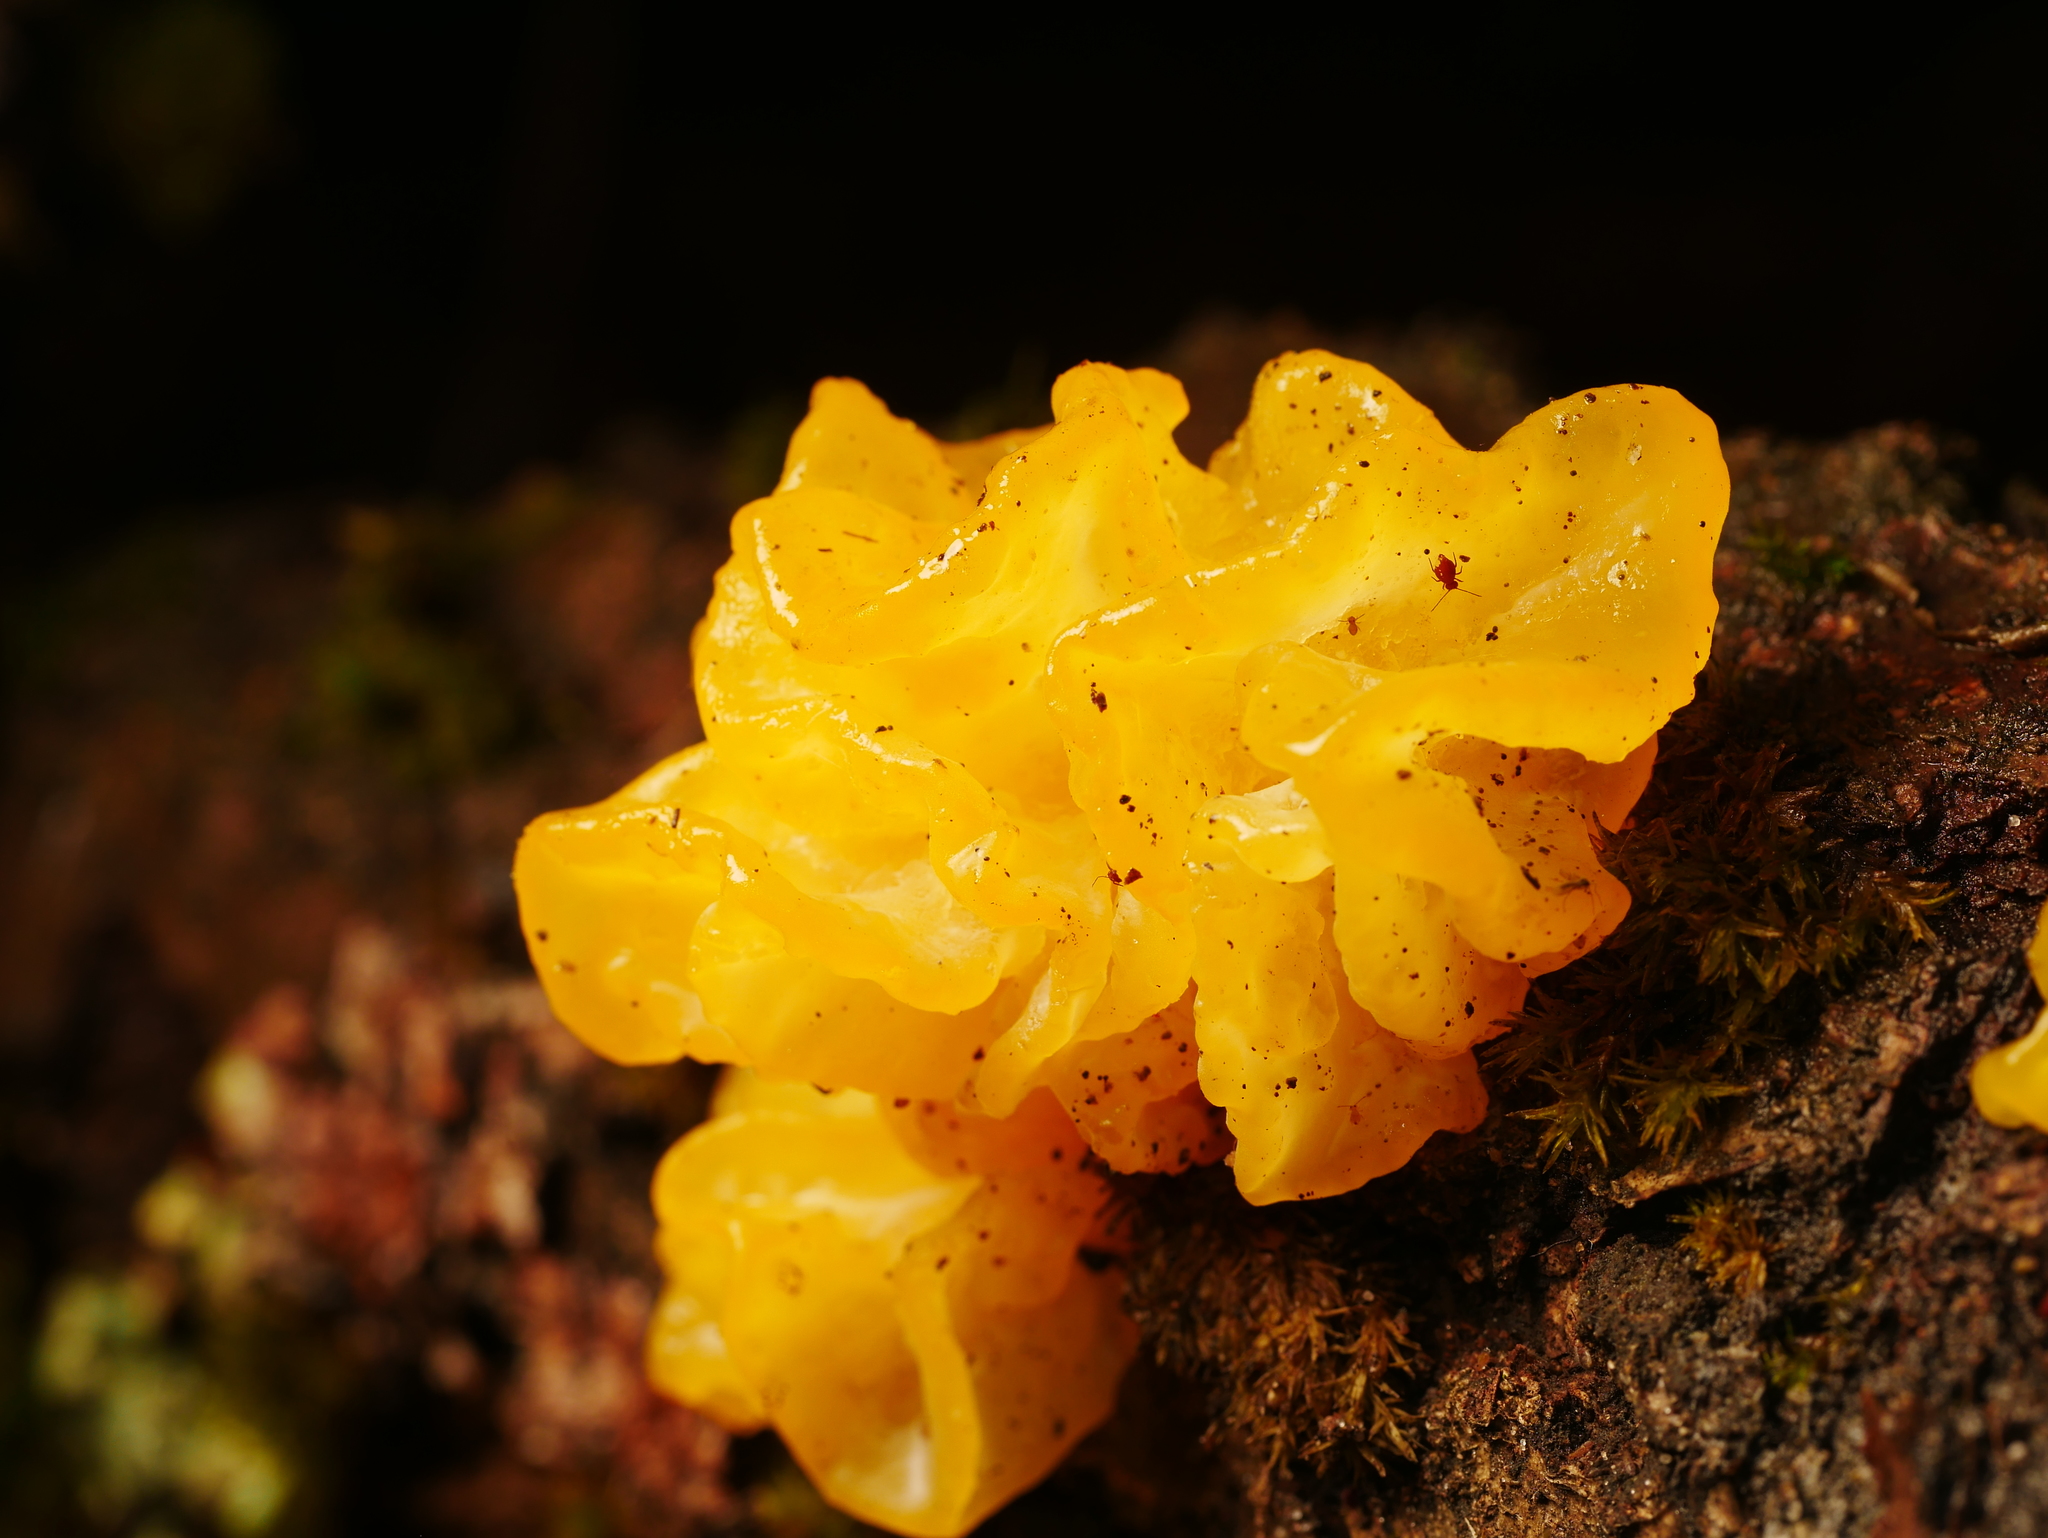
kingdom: Fungi
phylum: Basidiomycota
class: Tremellomycetes
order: Tremellales
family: Tremellaceae
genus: Tremella
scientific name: Tremella mesenterica
